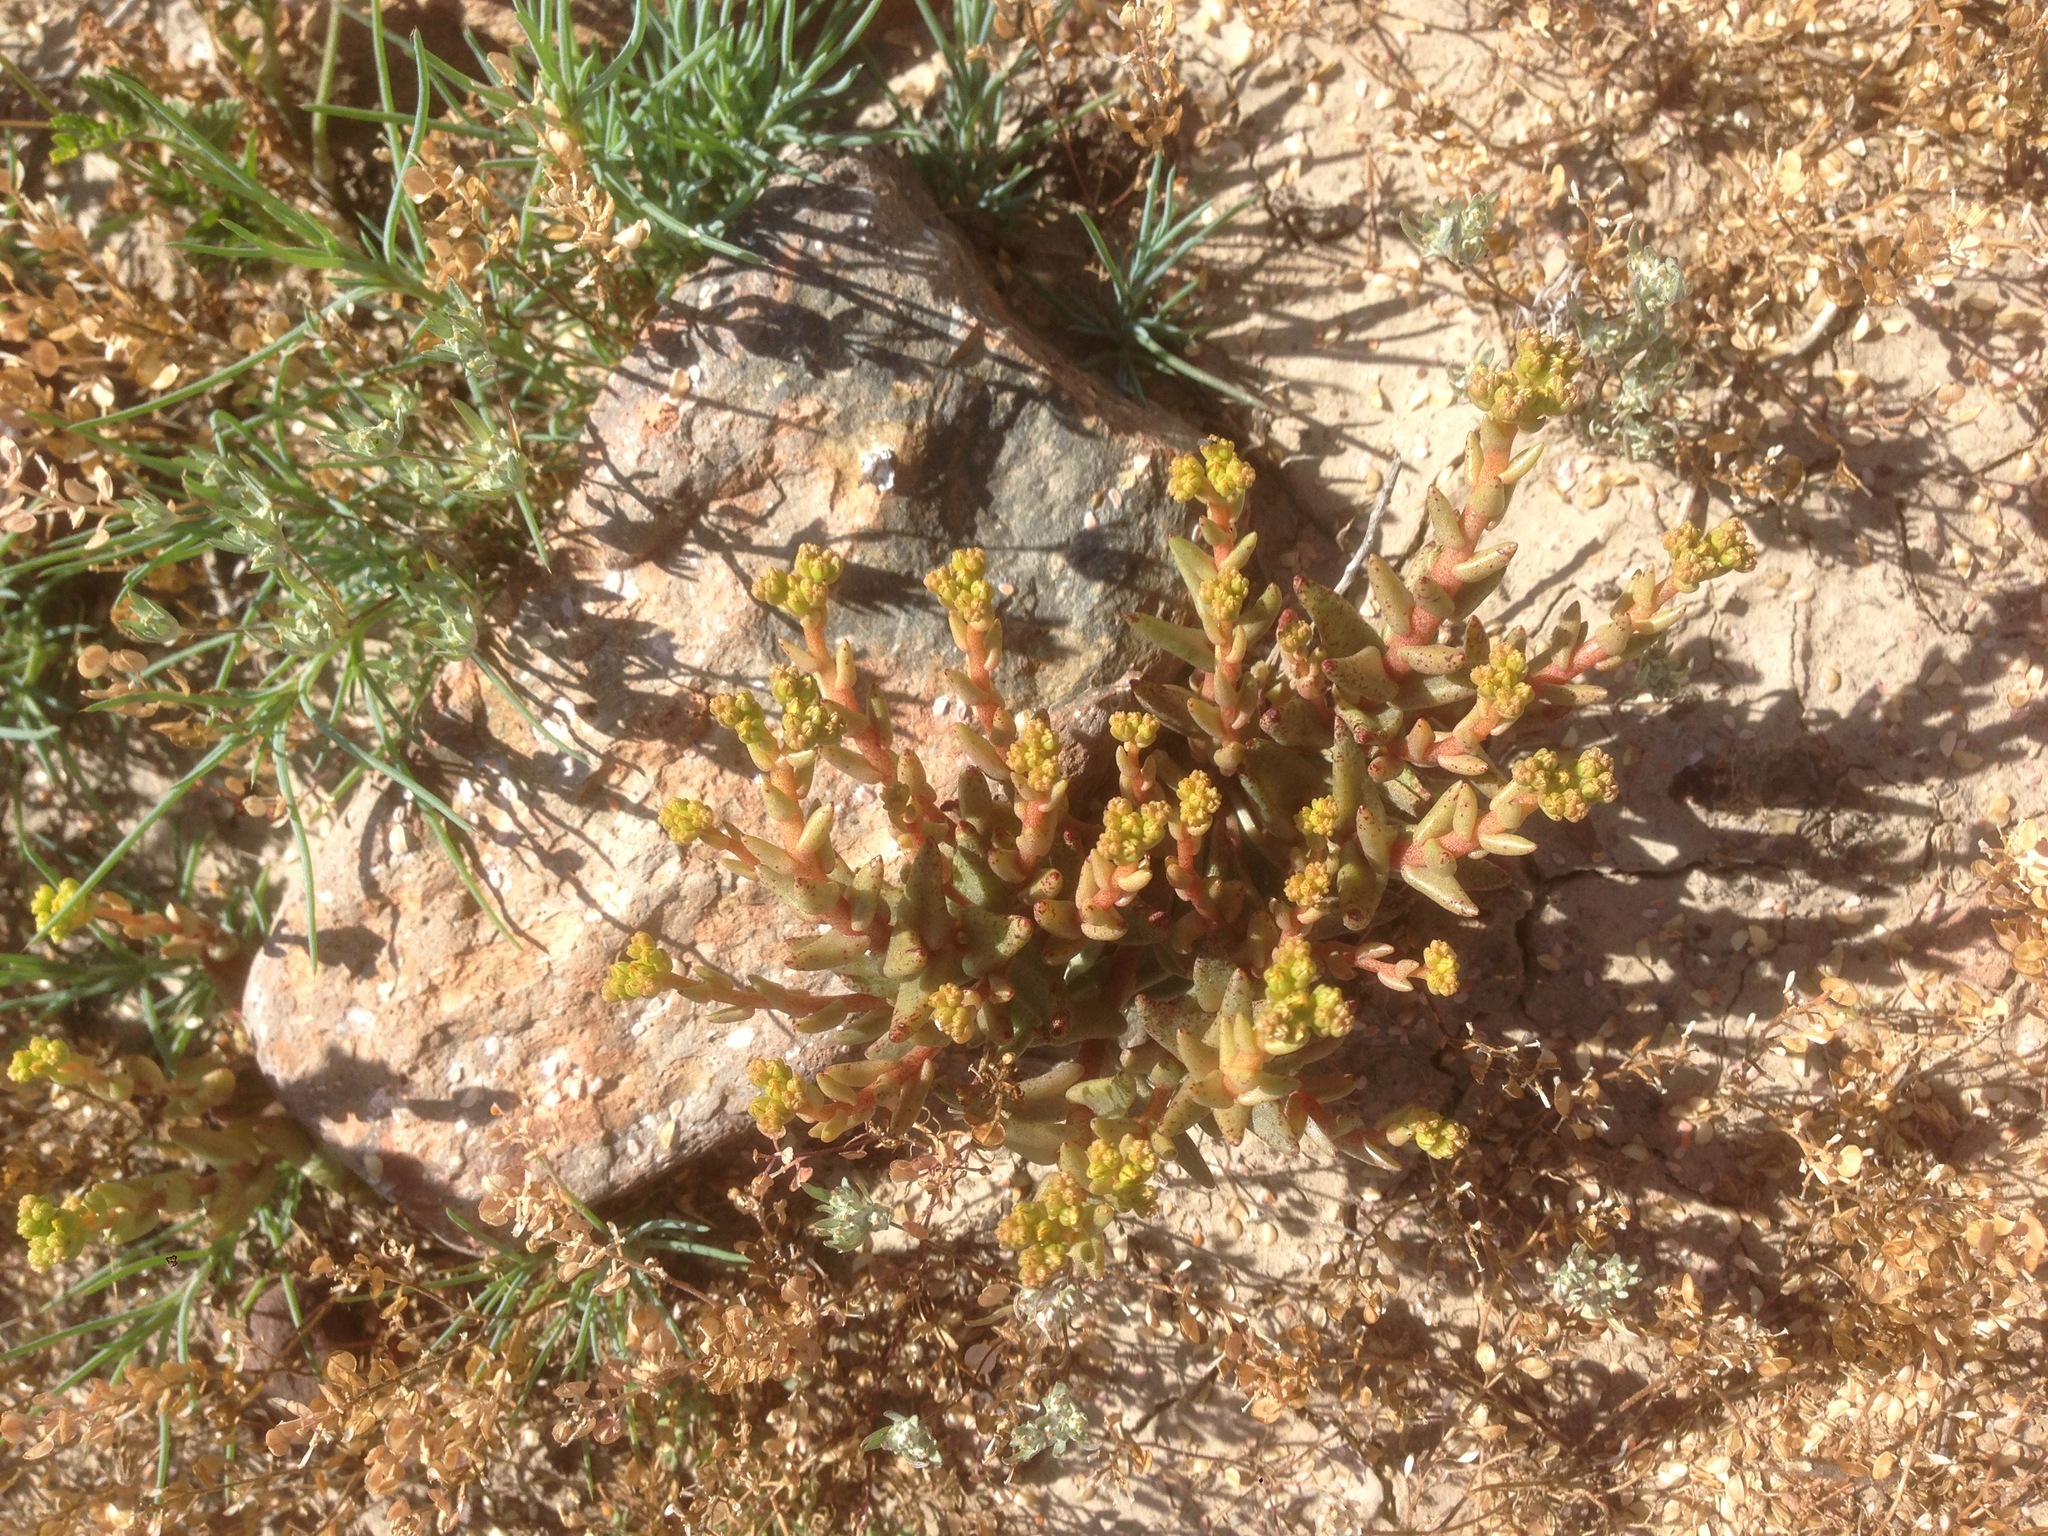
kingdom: Plantae
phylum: Tracheophyta
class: Magnoliopsida
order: Saxifragales
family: Crassulaceae
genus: Dudleya
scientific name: Dudleya variegata
